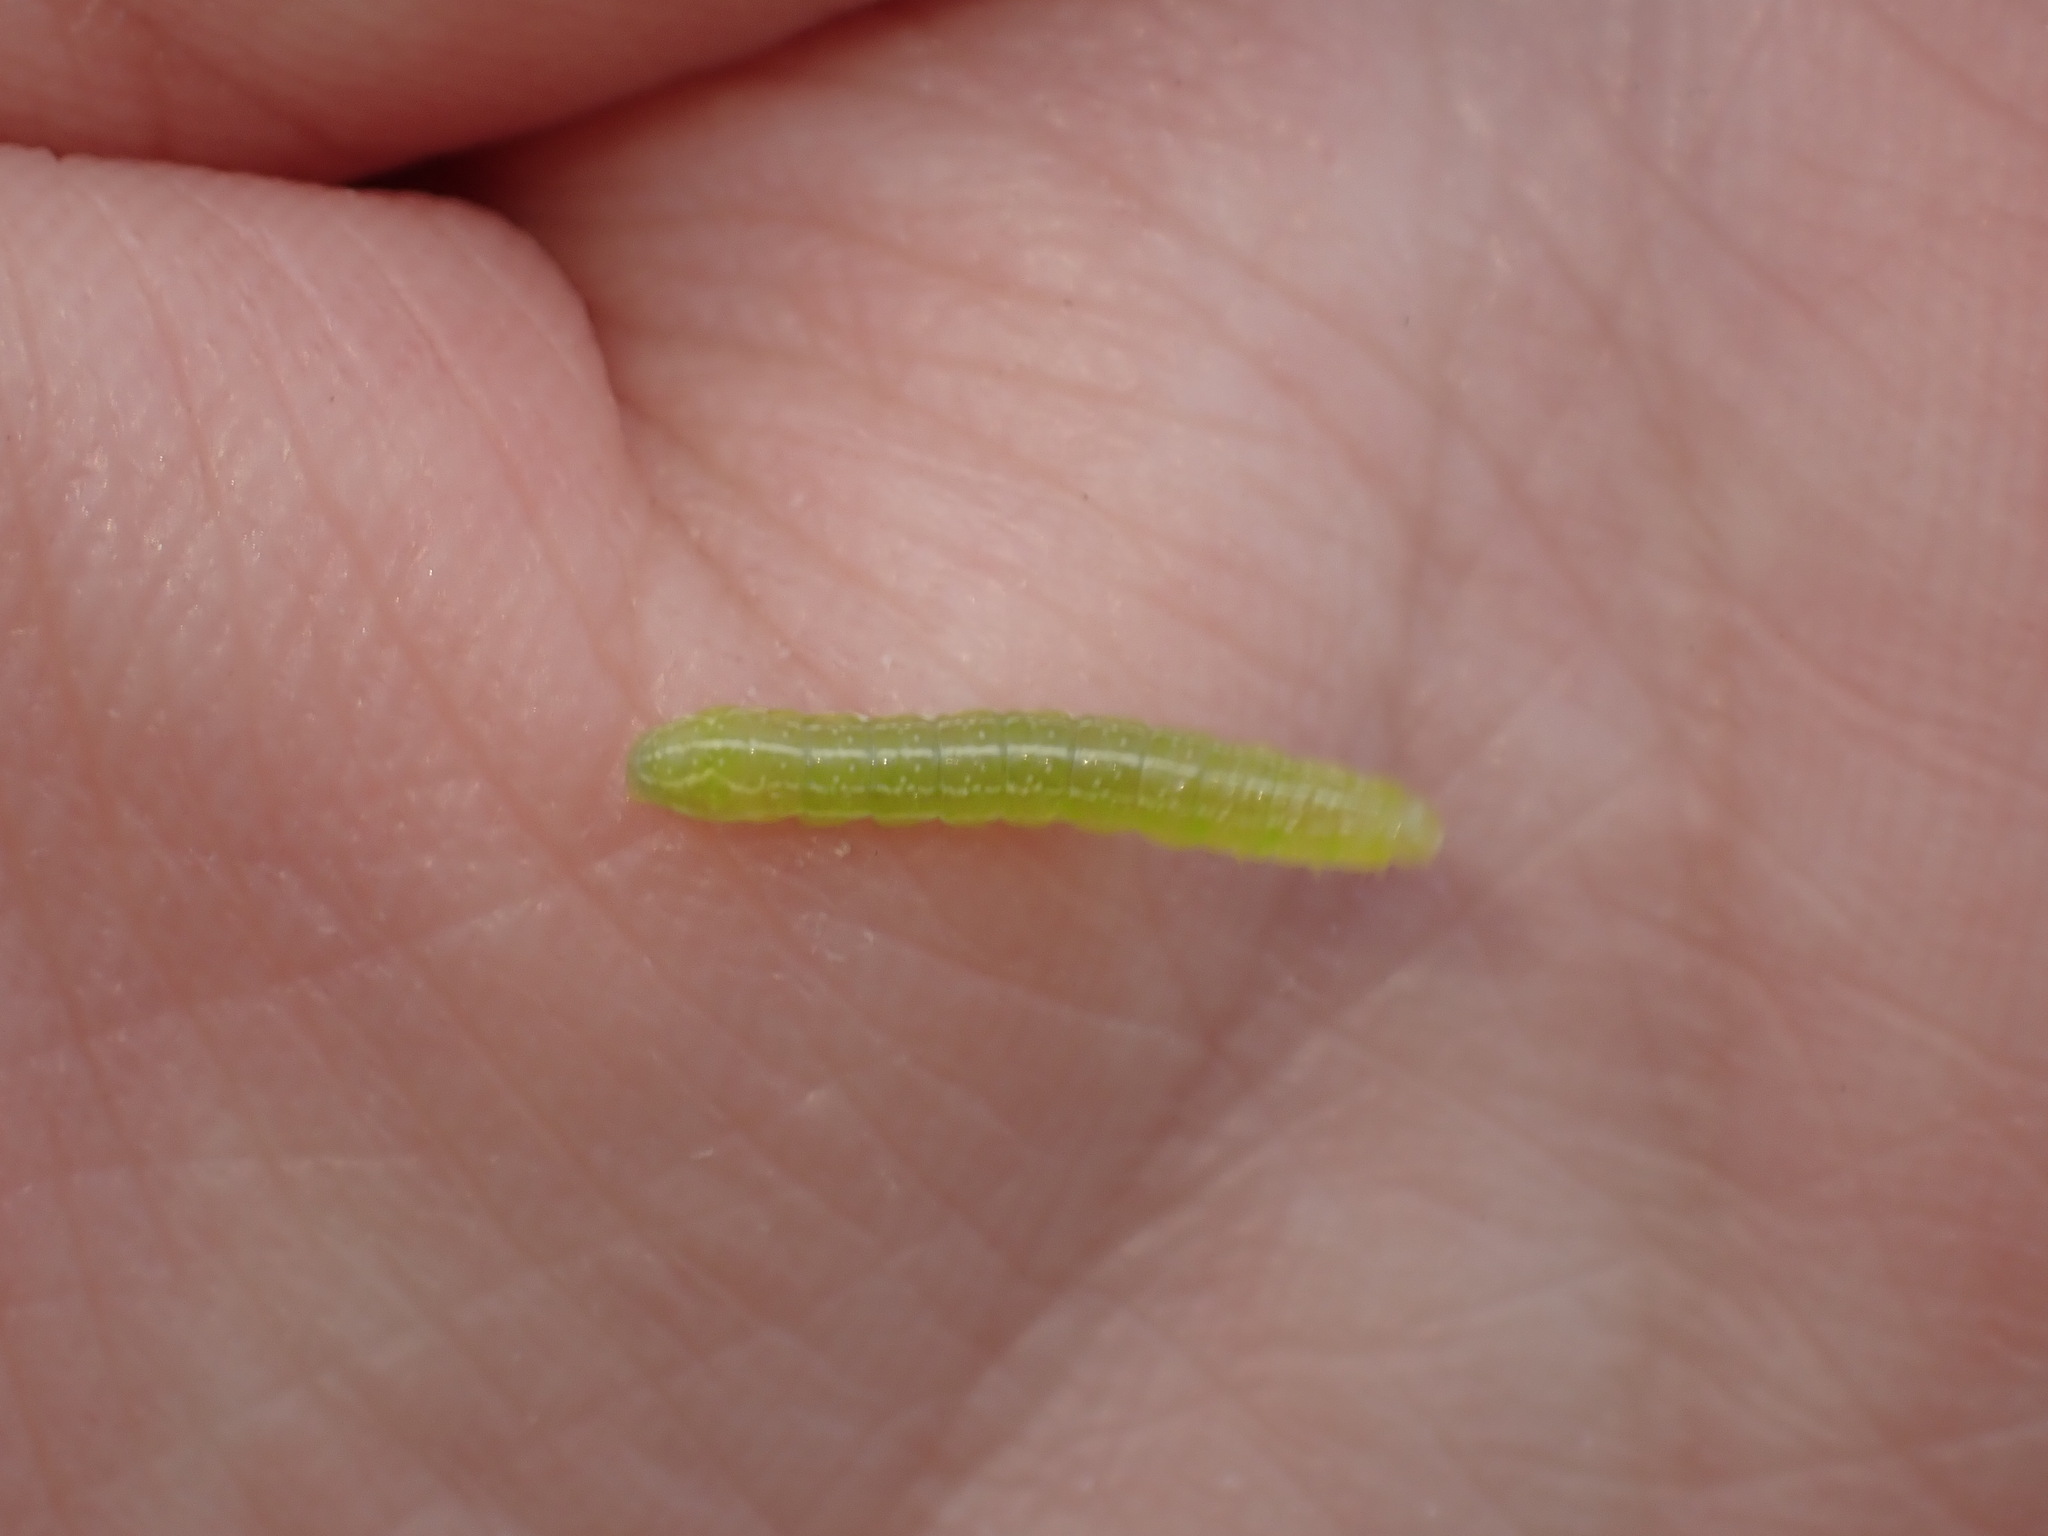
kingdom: Animalia
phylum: Arthropoda
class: Insecta
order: Lepidoptera
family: Noctuidae
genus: Amphipyra
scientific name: Amphipyra pyramidoides
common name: American copper underwing
